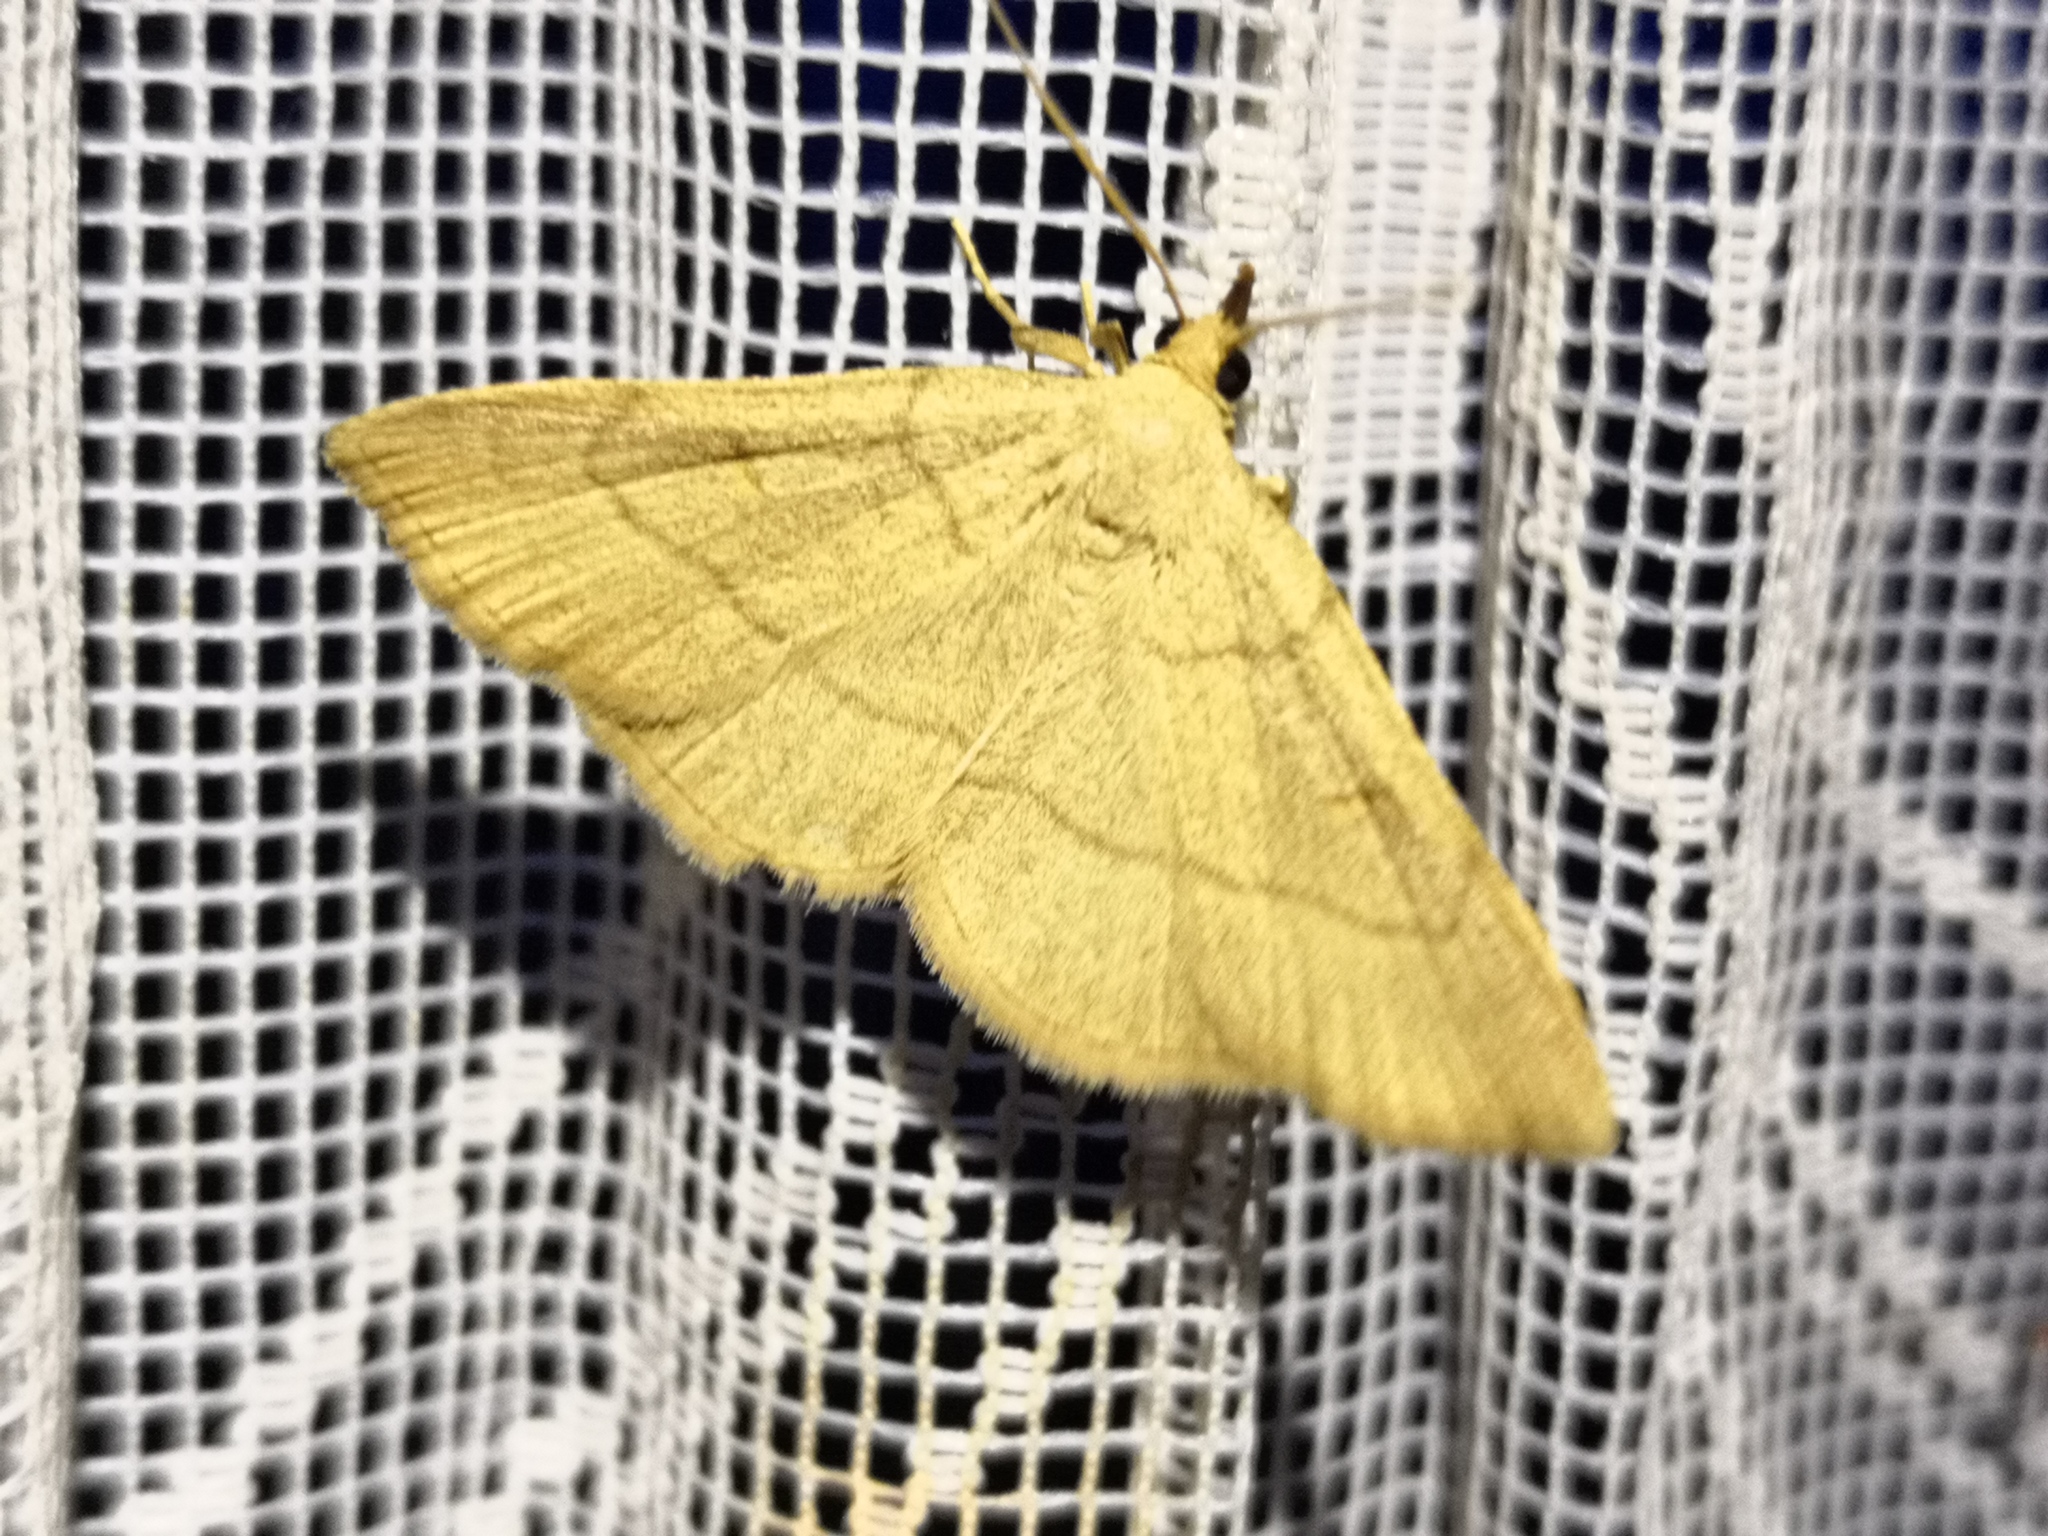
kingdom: Animalia
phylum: Arthropoda
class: Insecta
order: Lepidoptera
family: Erebidae
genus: Paracolax
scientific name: Paracolax tristalis
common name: Clay fan-foot
